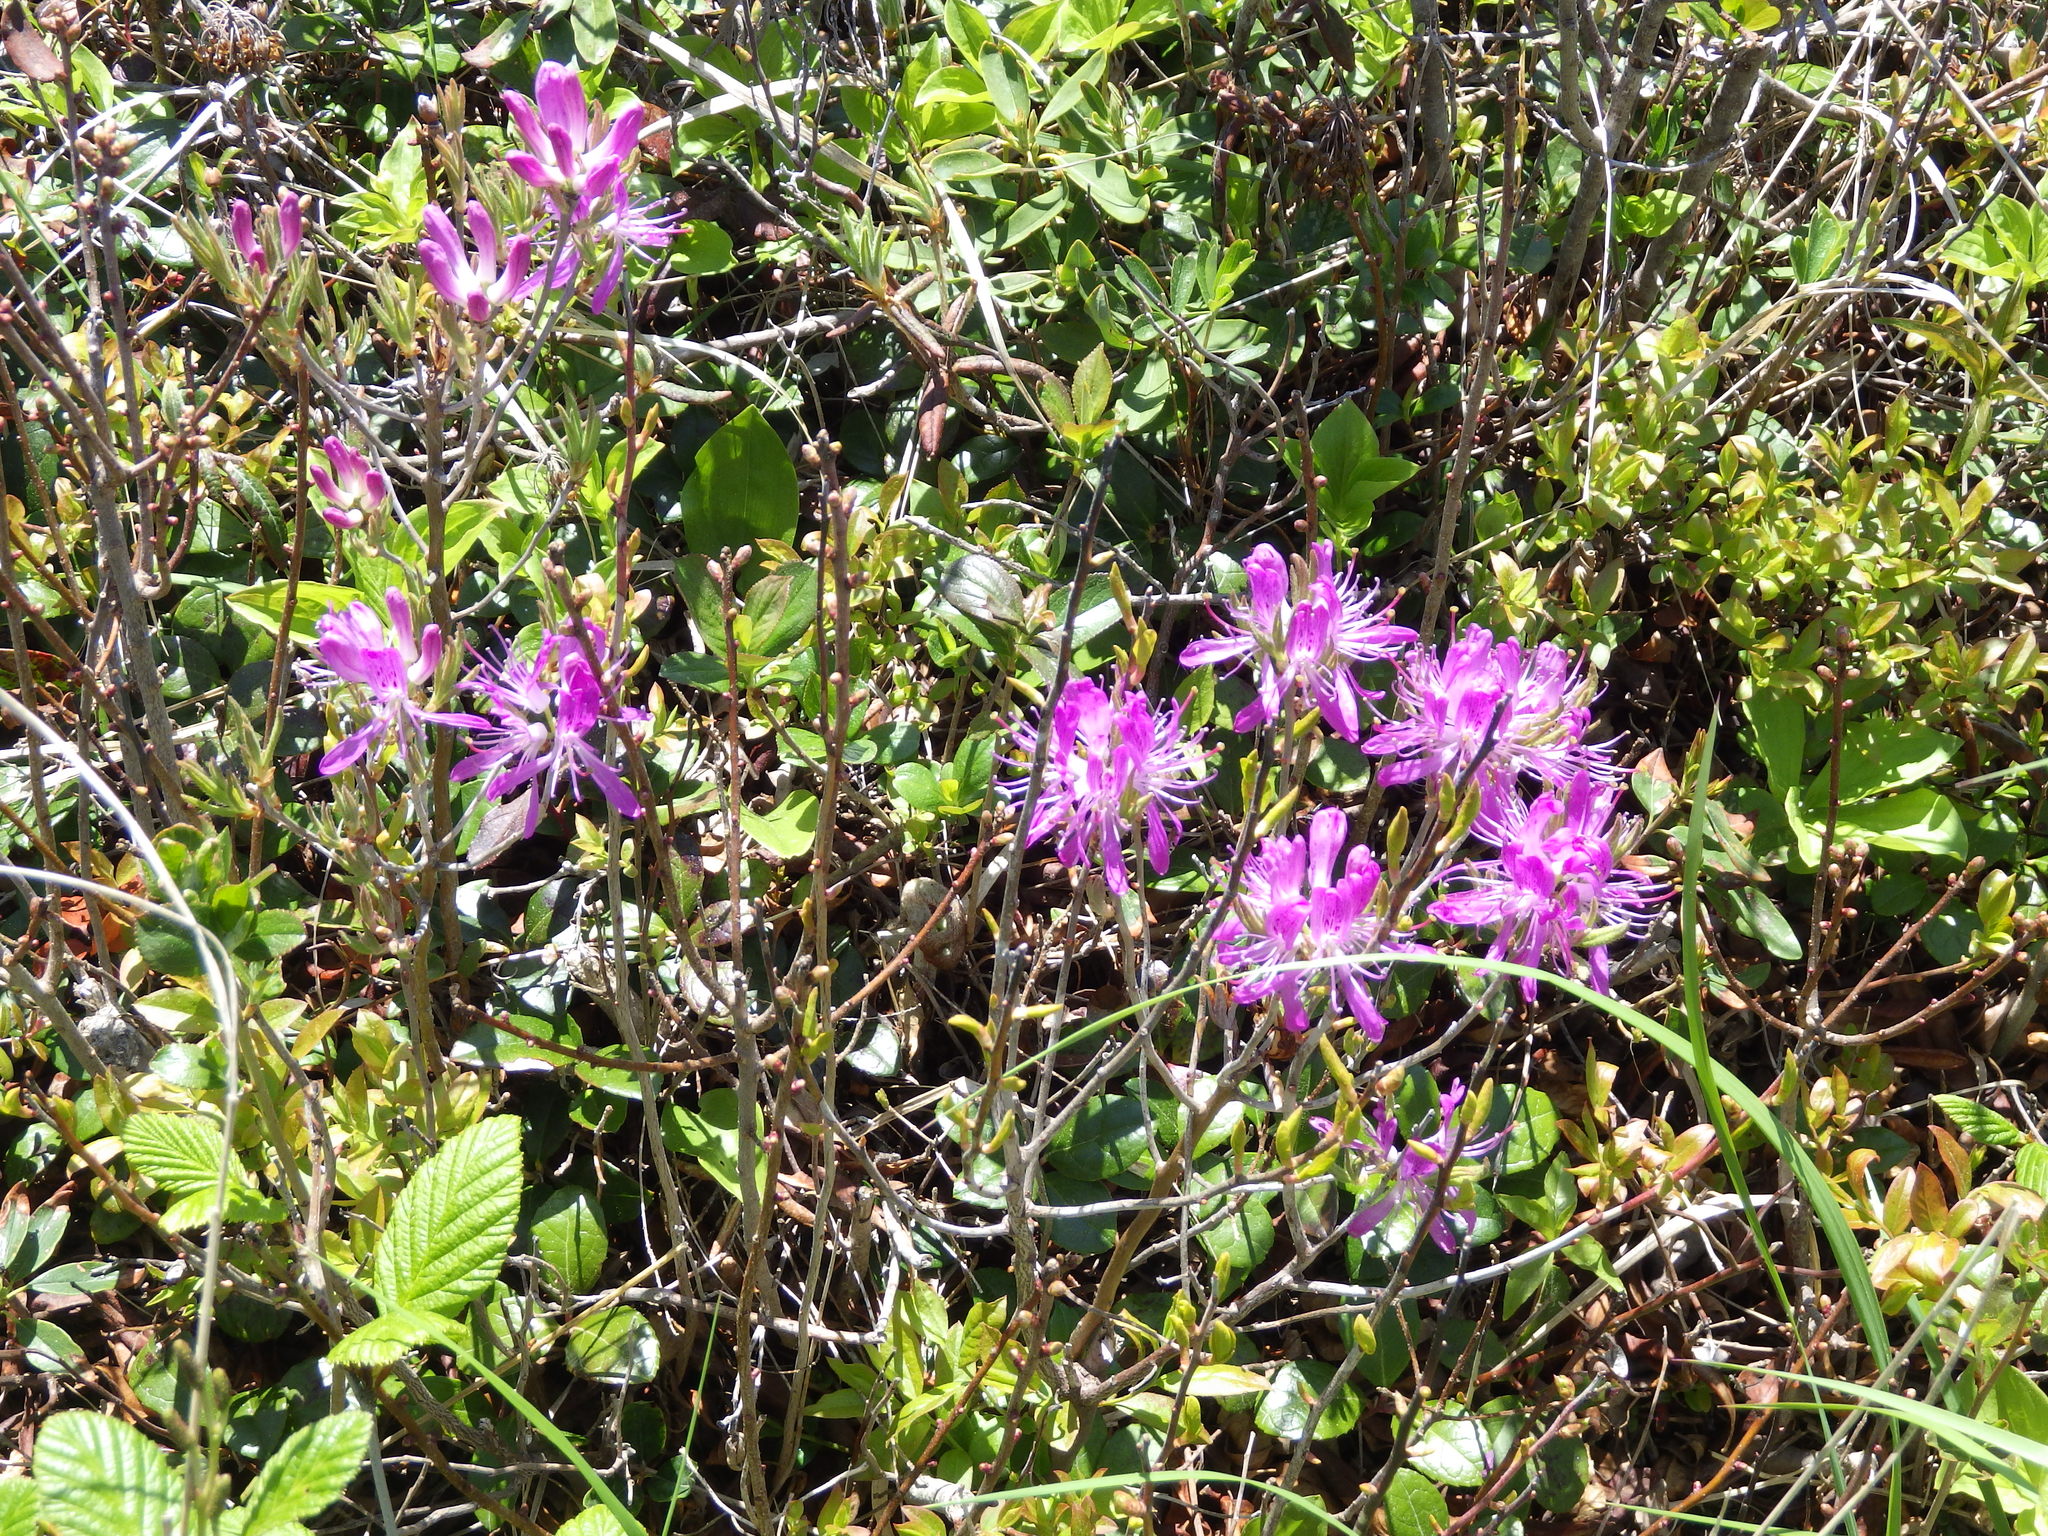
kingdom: Plantae
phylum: Tracheophyta
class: Magnoliopsida
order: Ericales
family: Ericaceae
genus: Rhododendron
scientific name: Rhododendron canadense
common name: Rhodora
